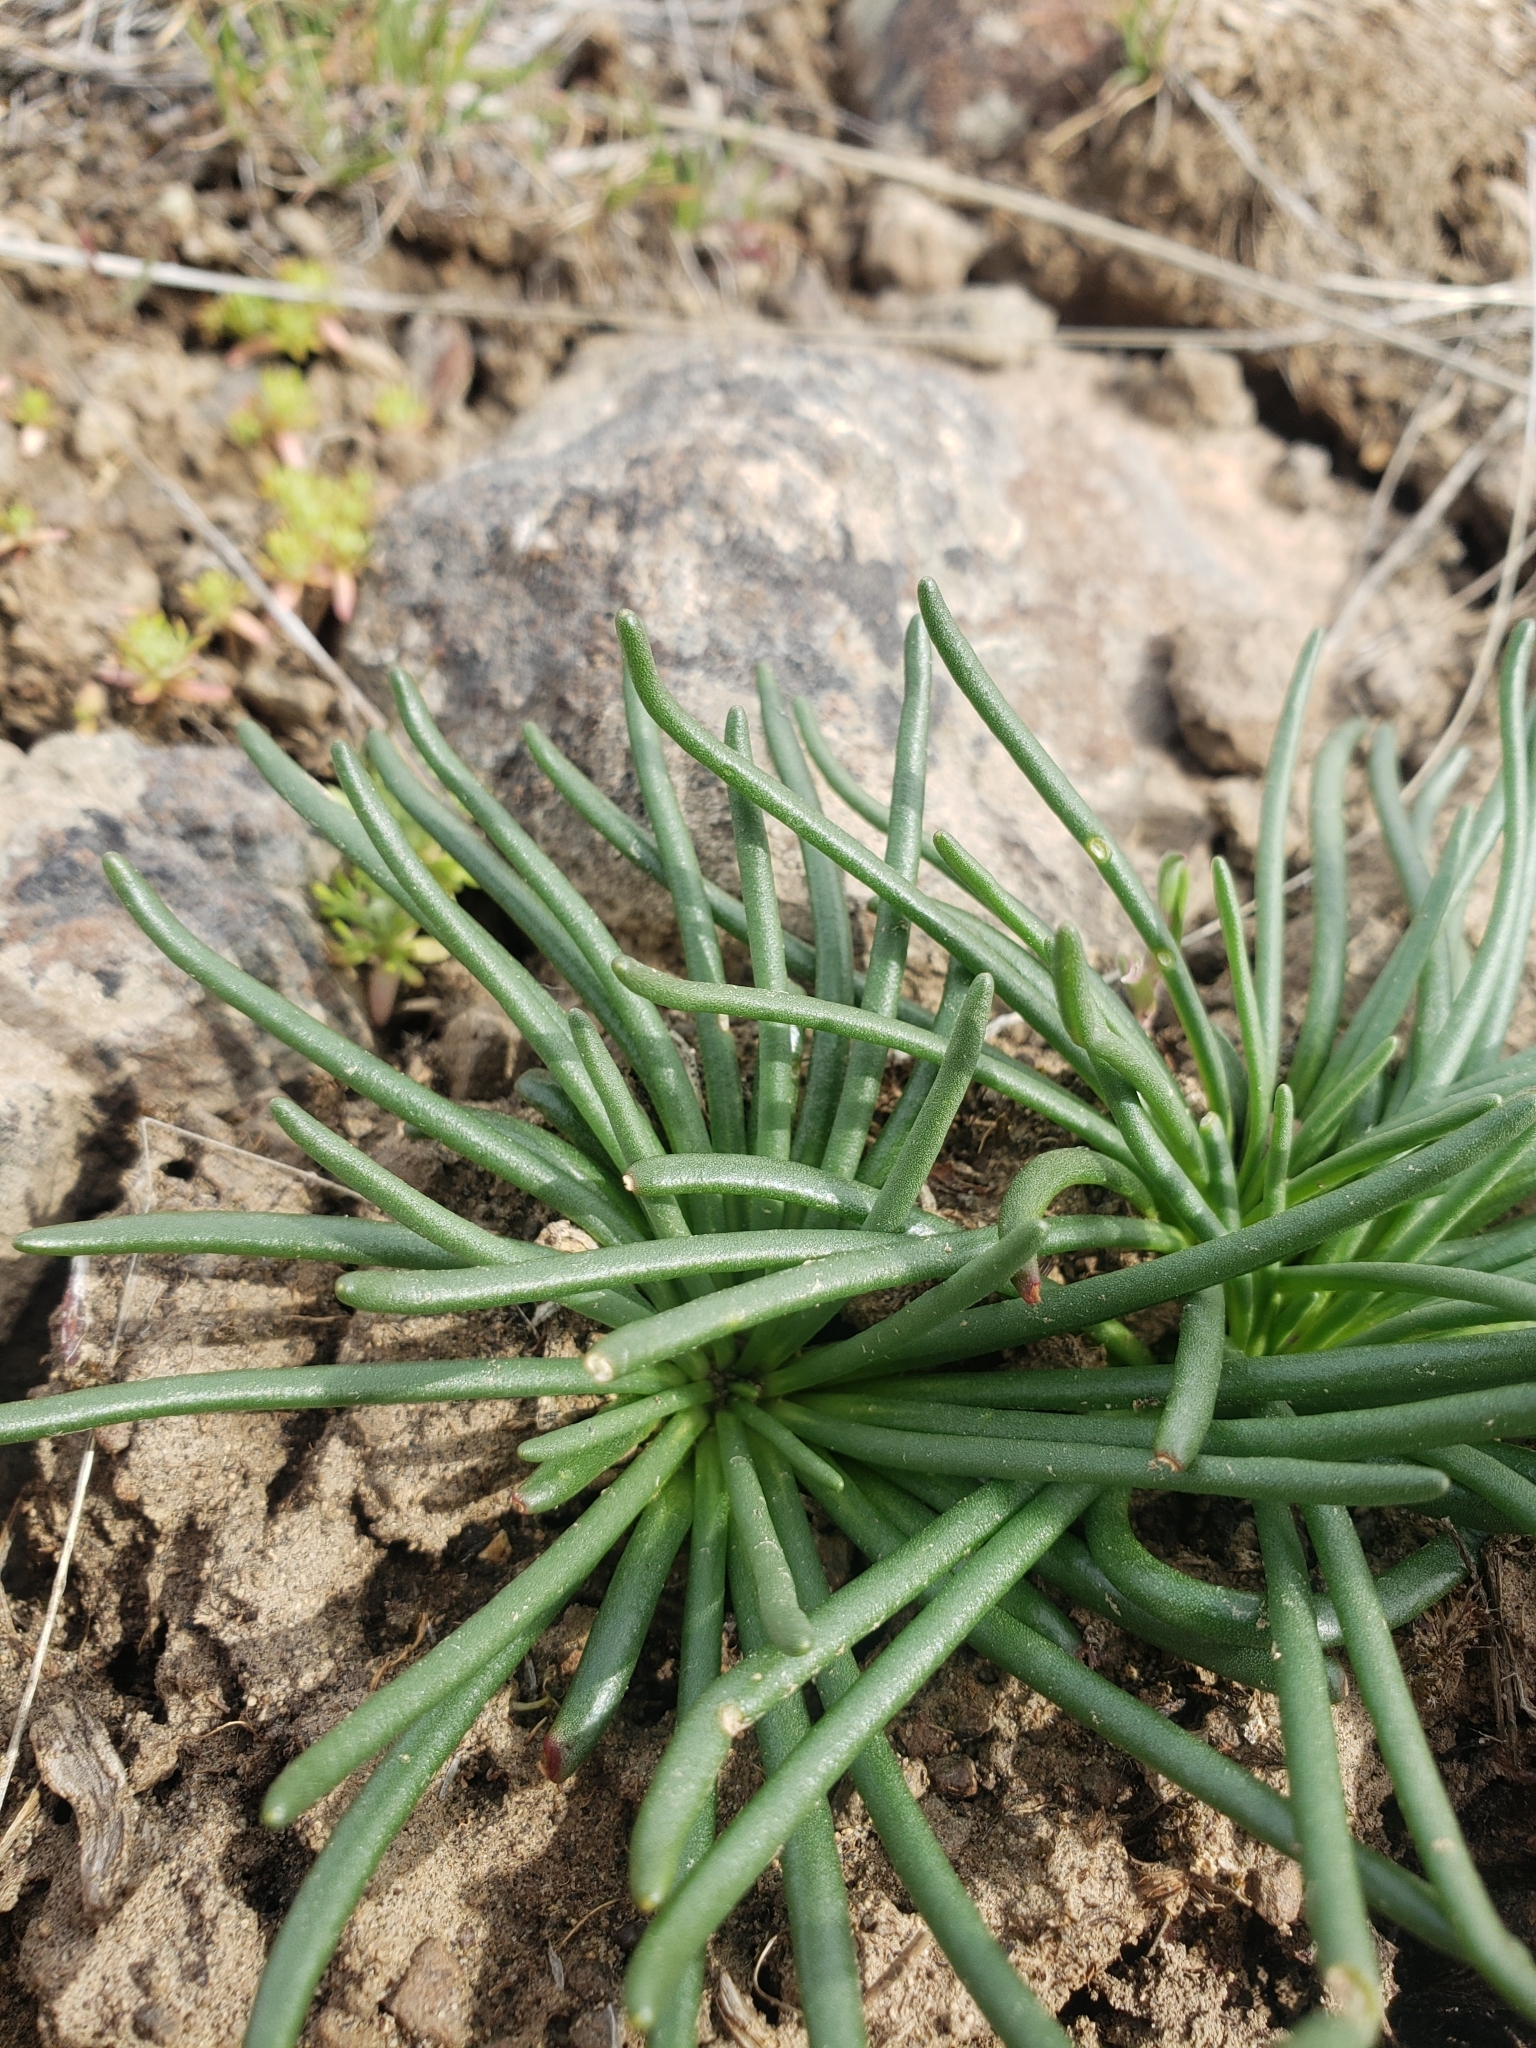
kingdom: Plantae
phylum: Tracheophyta
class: Magnoliopsida
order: Caryophyllales
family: Montiaceae
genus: Lewisia
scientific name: Lewisia rediviva
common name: Bitter-root
